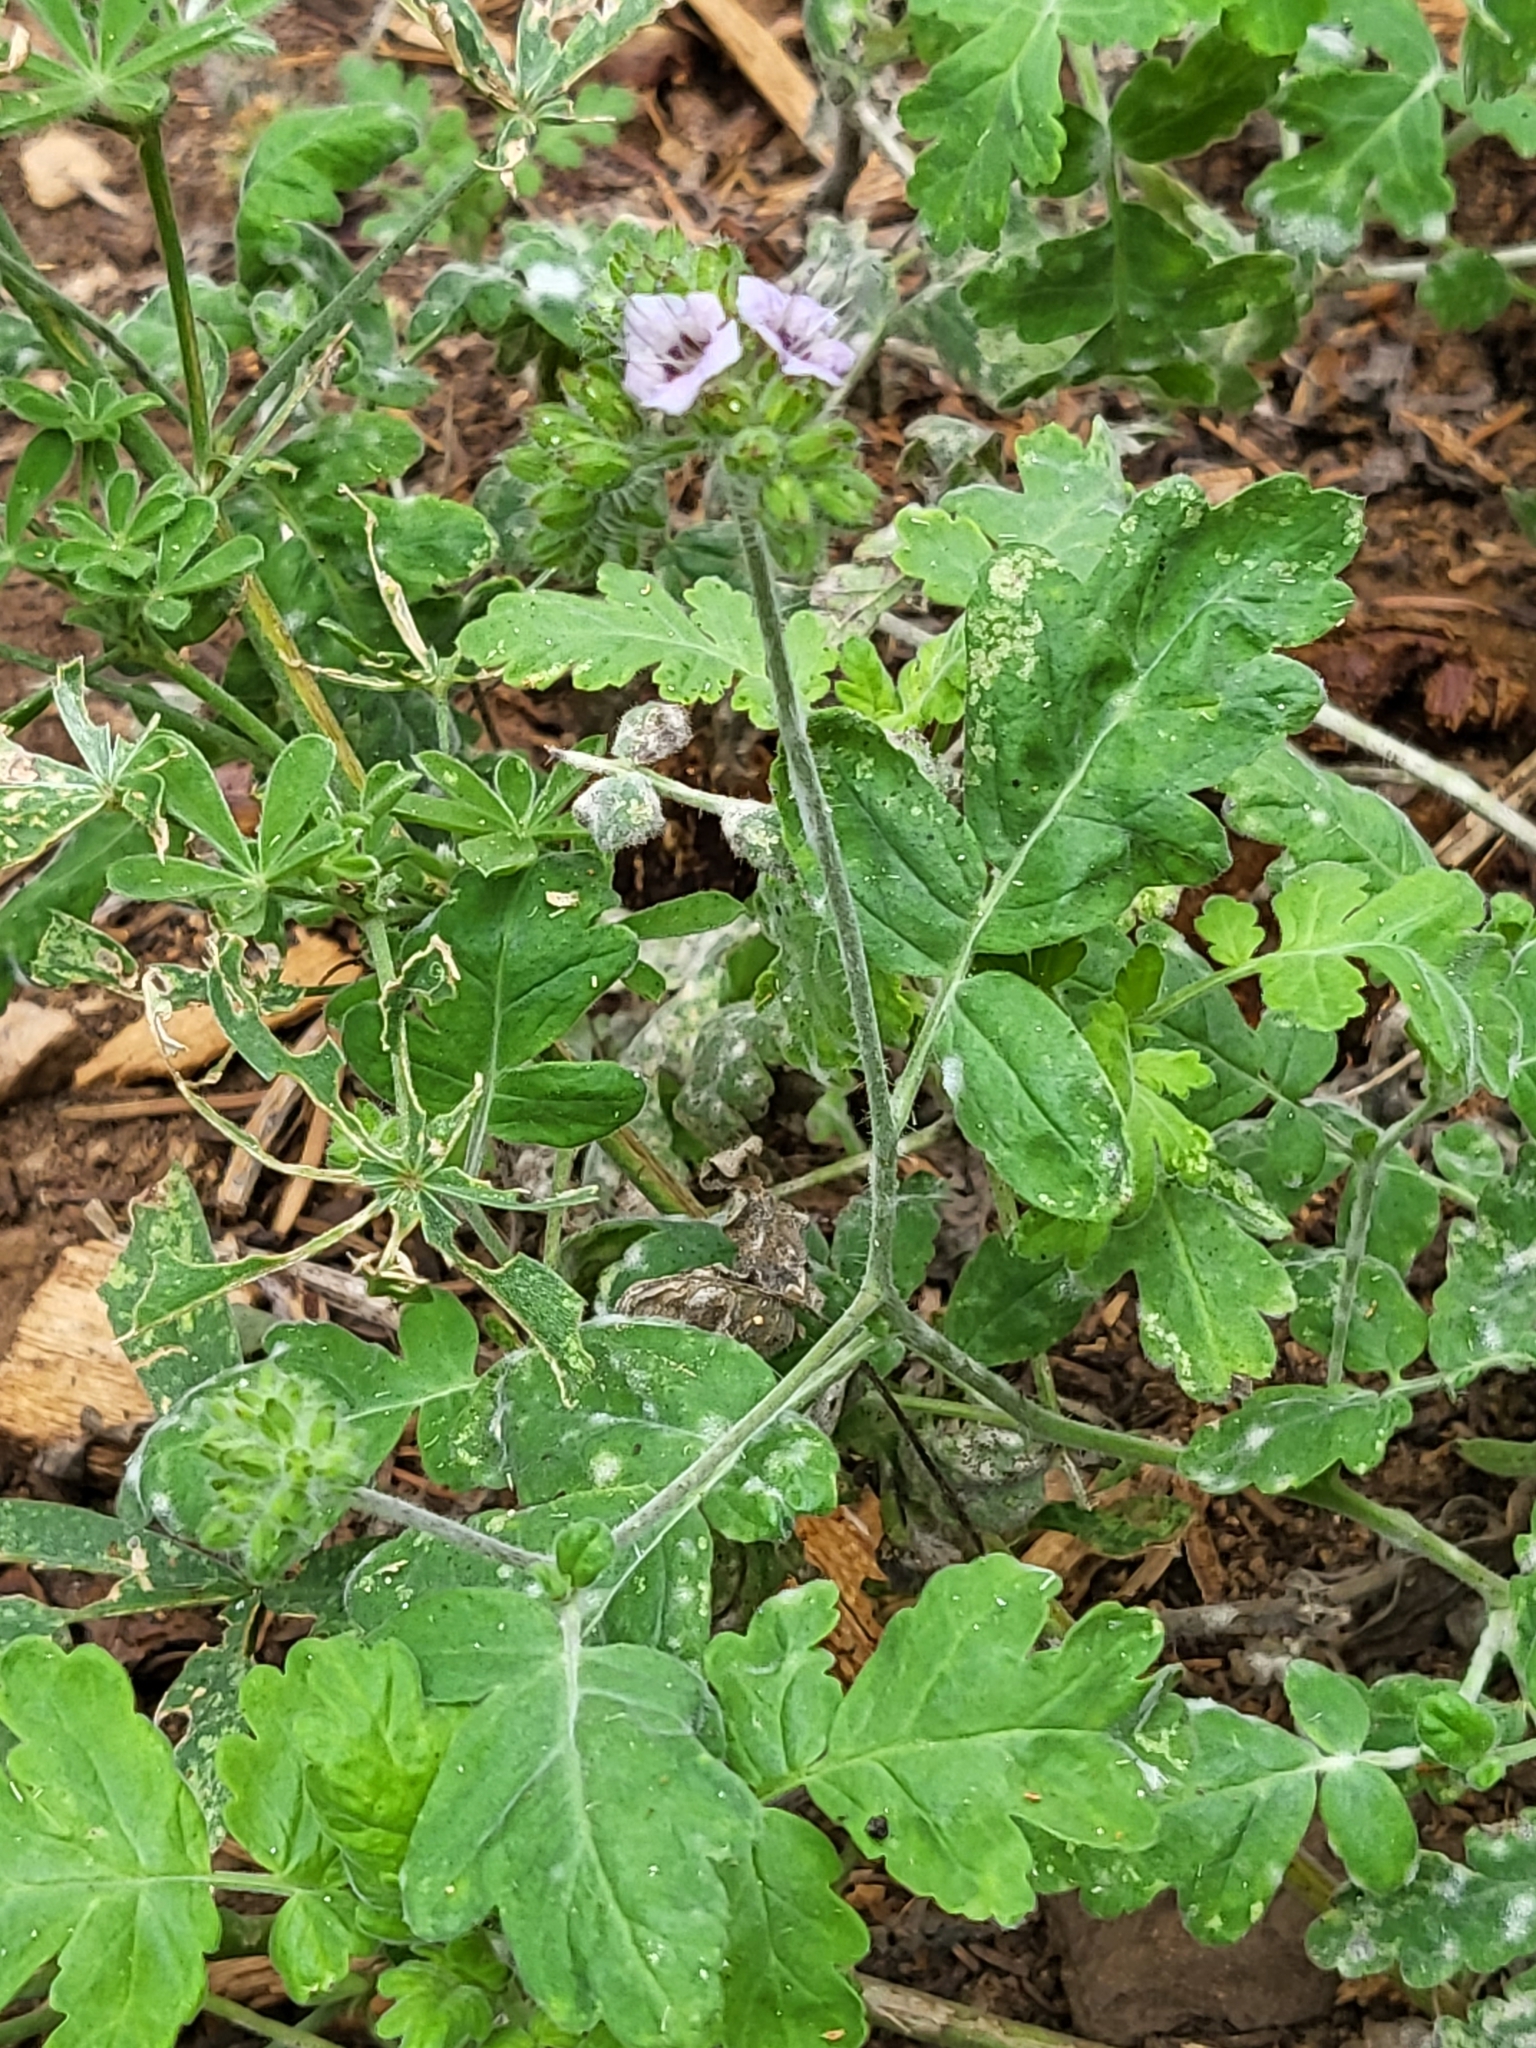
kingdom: Plantae
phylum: Tracheophyta
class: Magnoliopsida
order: Boraginales
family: Hydrophyllaceae
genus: Phacelia
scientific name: Phacelia ramosissima
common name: Branching phacelia
